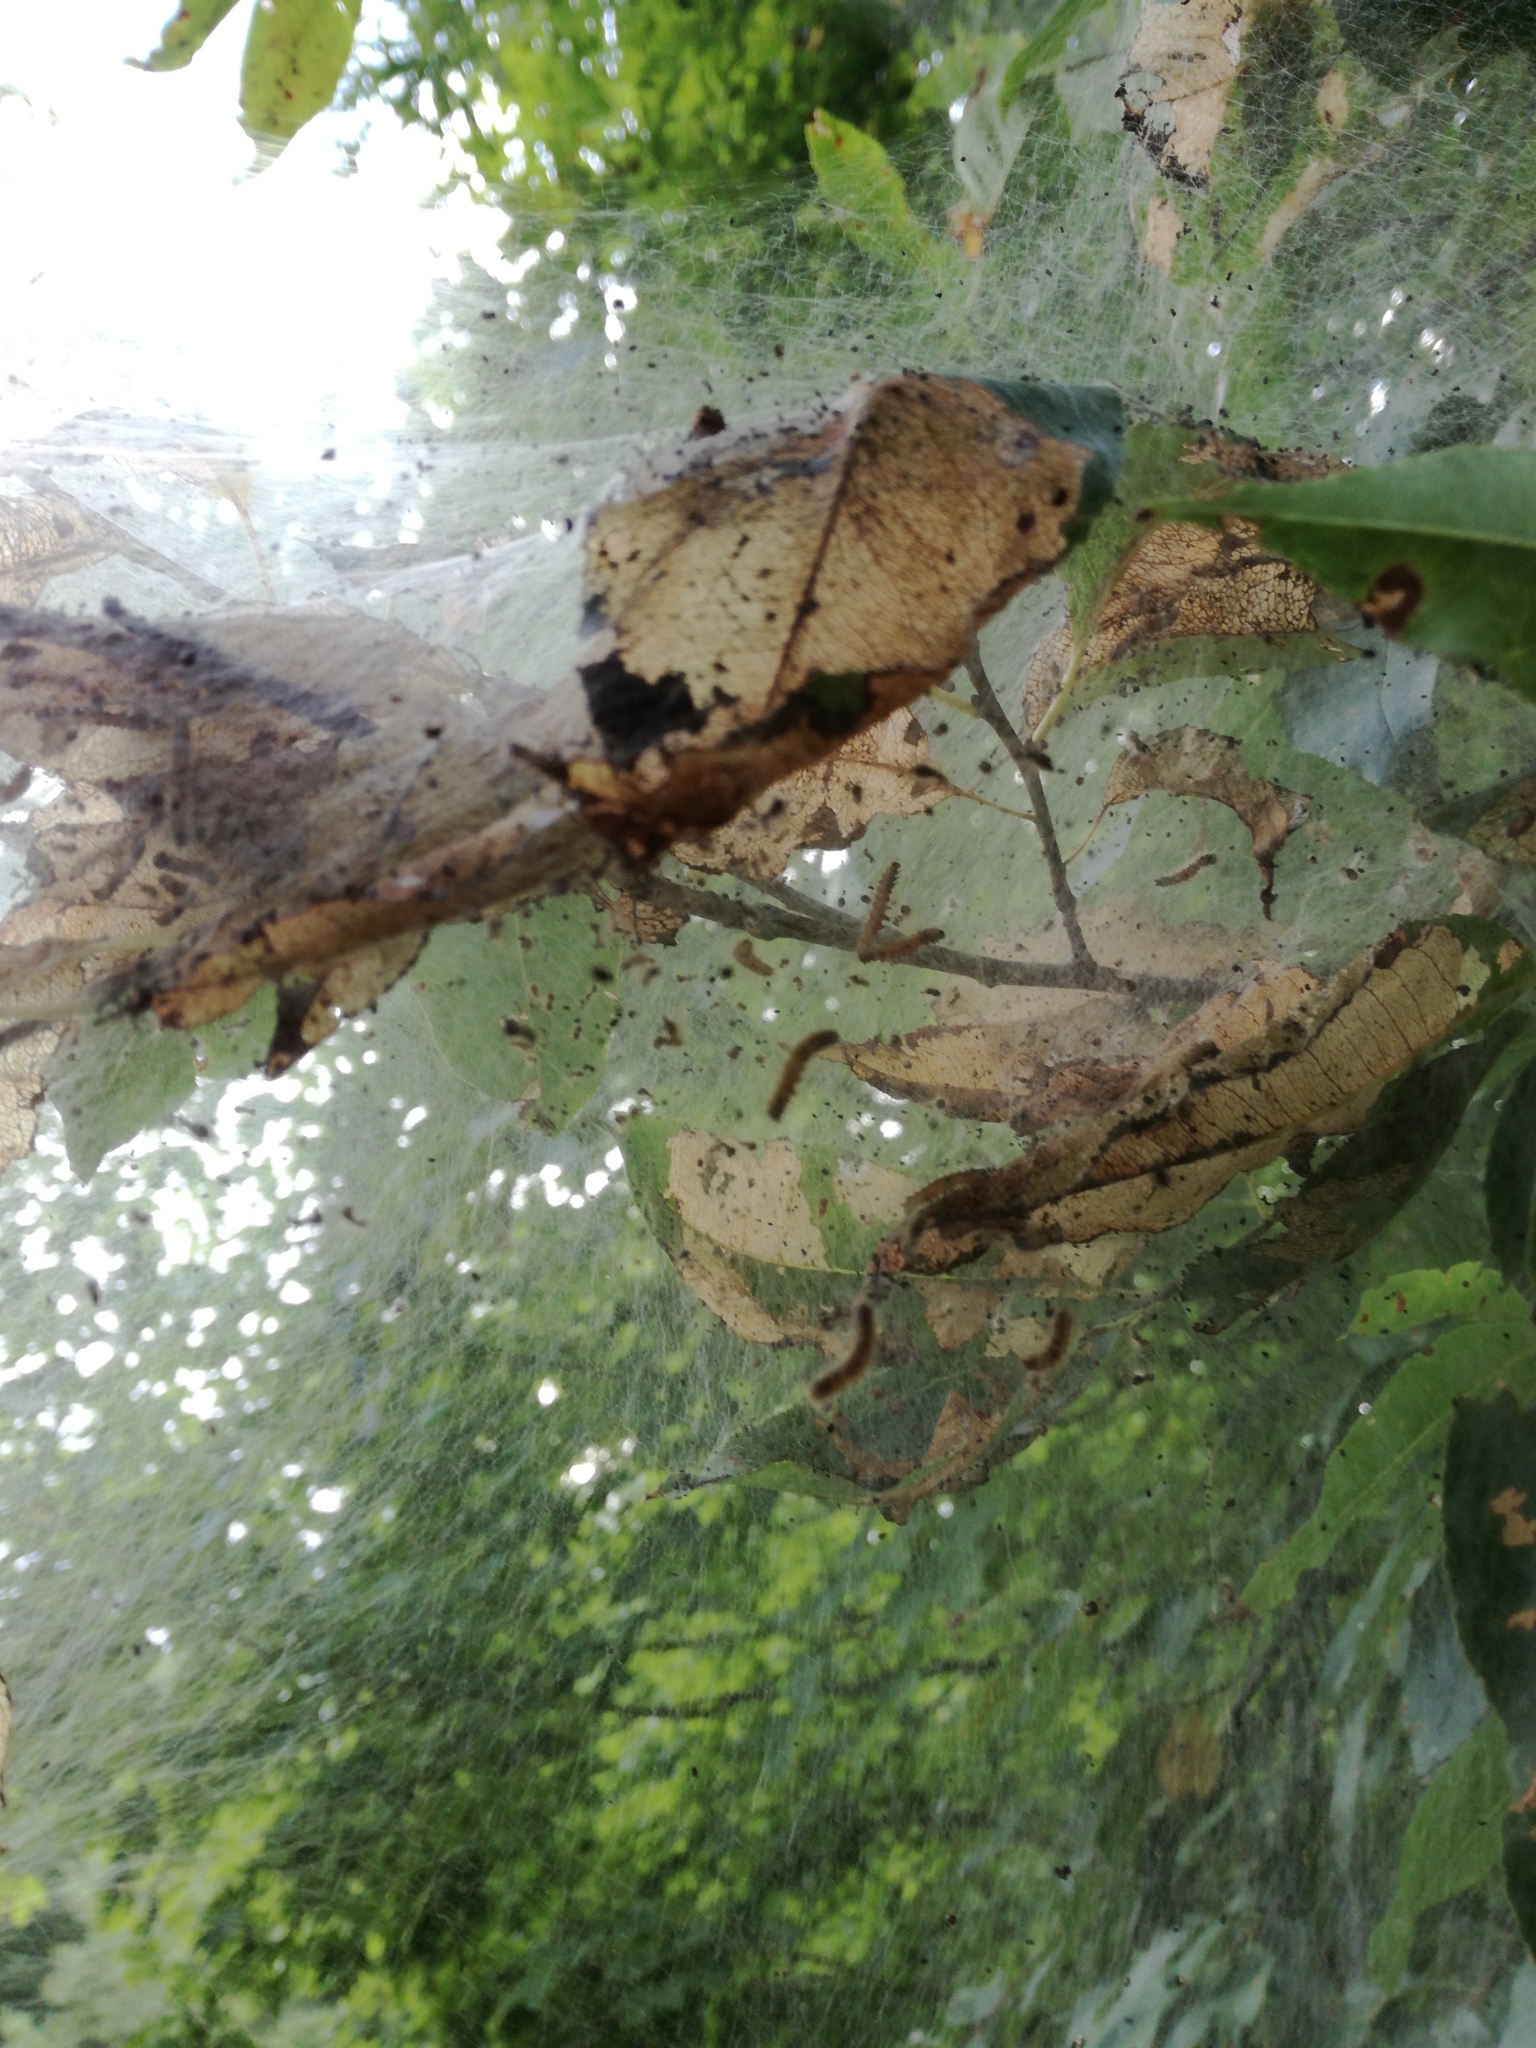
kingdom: Animalia
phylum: Arthropoda
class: Insecta
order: Lepidoptera
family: Erebidae
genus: Hyphantria
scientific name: Hyphantria cunea
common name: American white moth
